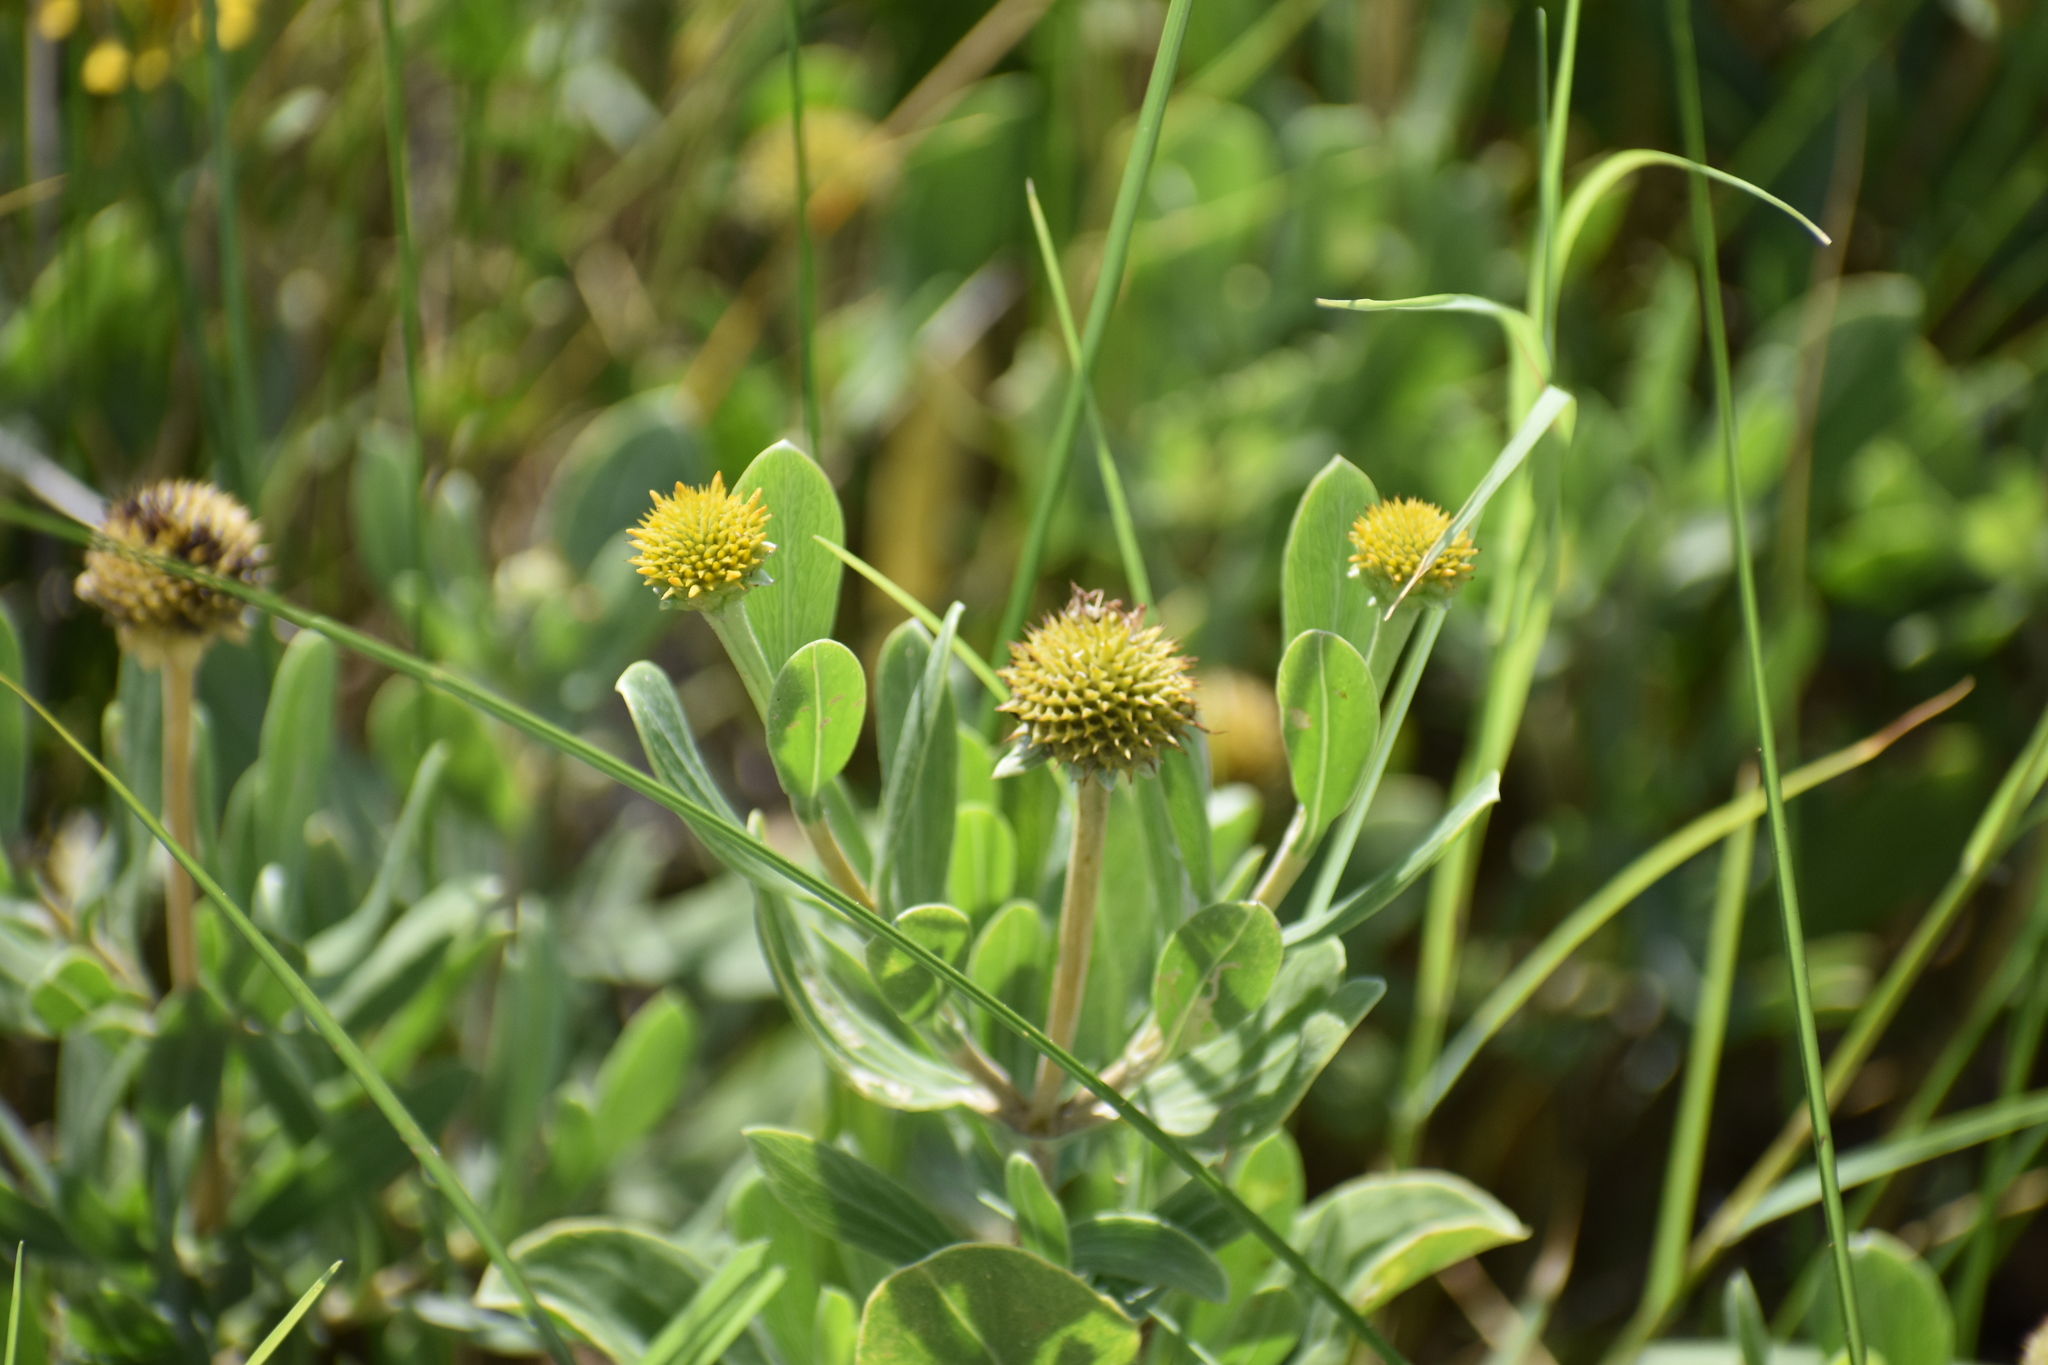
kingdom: Plantae
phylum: Tracheophyta
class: Magnoliopsida
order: Asterales
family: Asteraceae
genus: Borrichia
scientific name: Borrichia frutescens
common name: Sea oxeye
